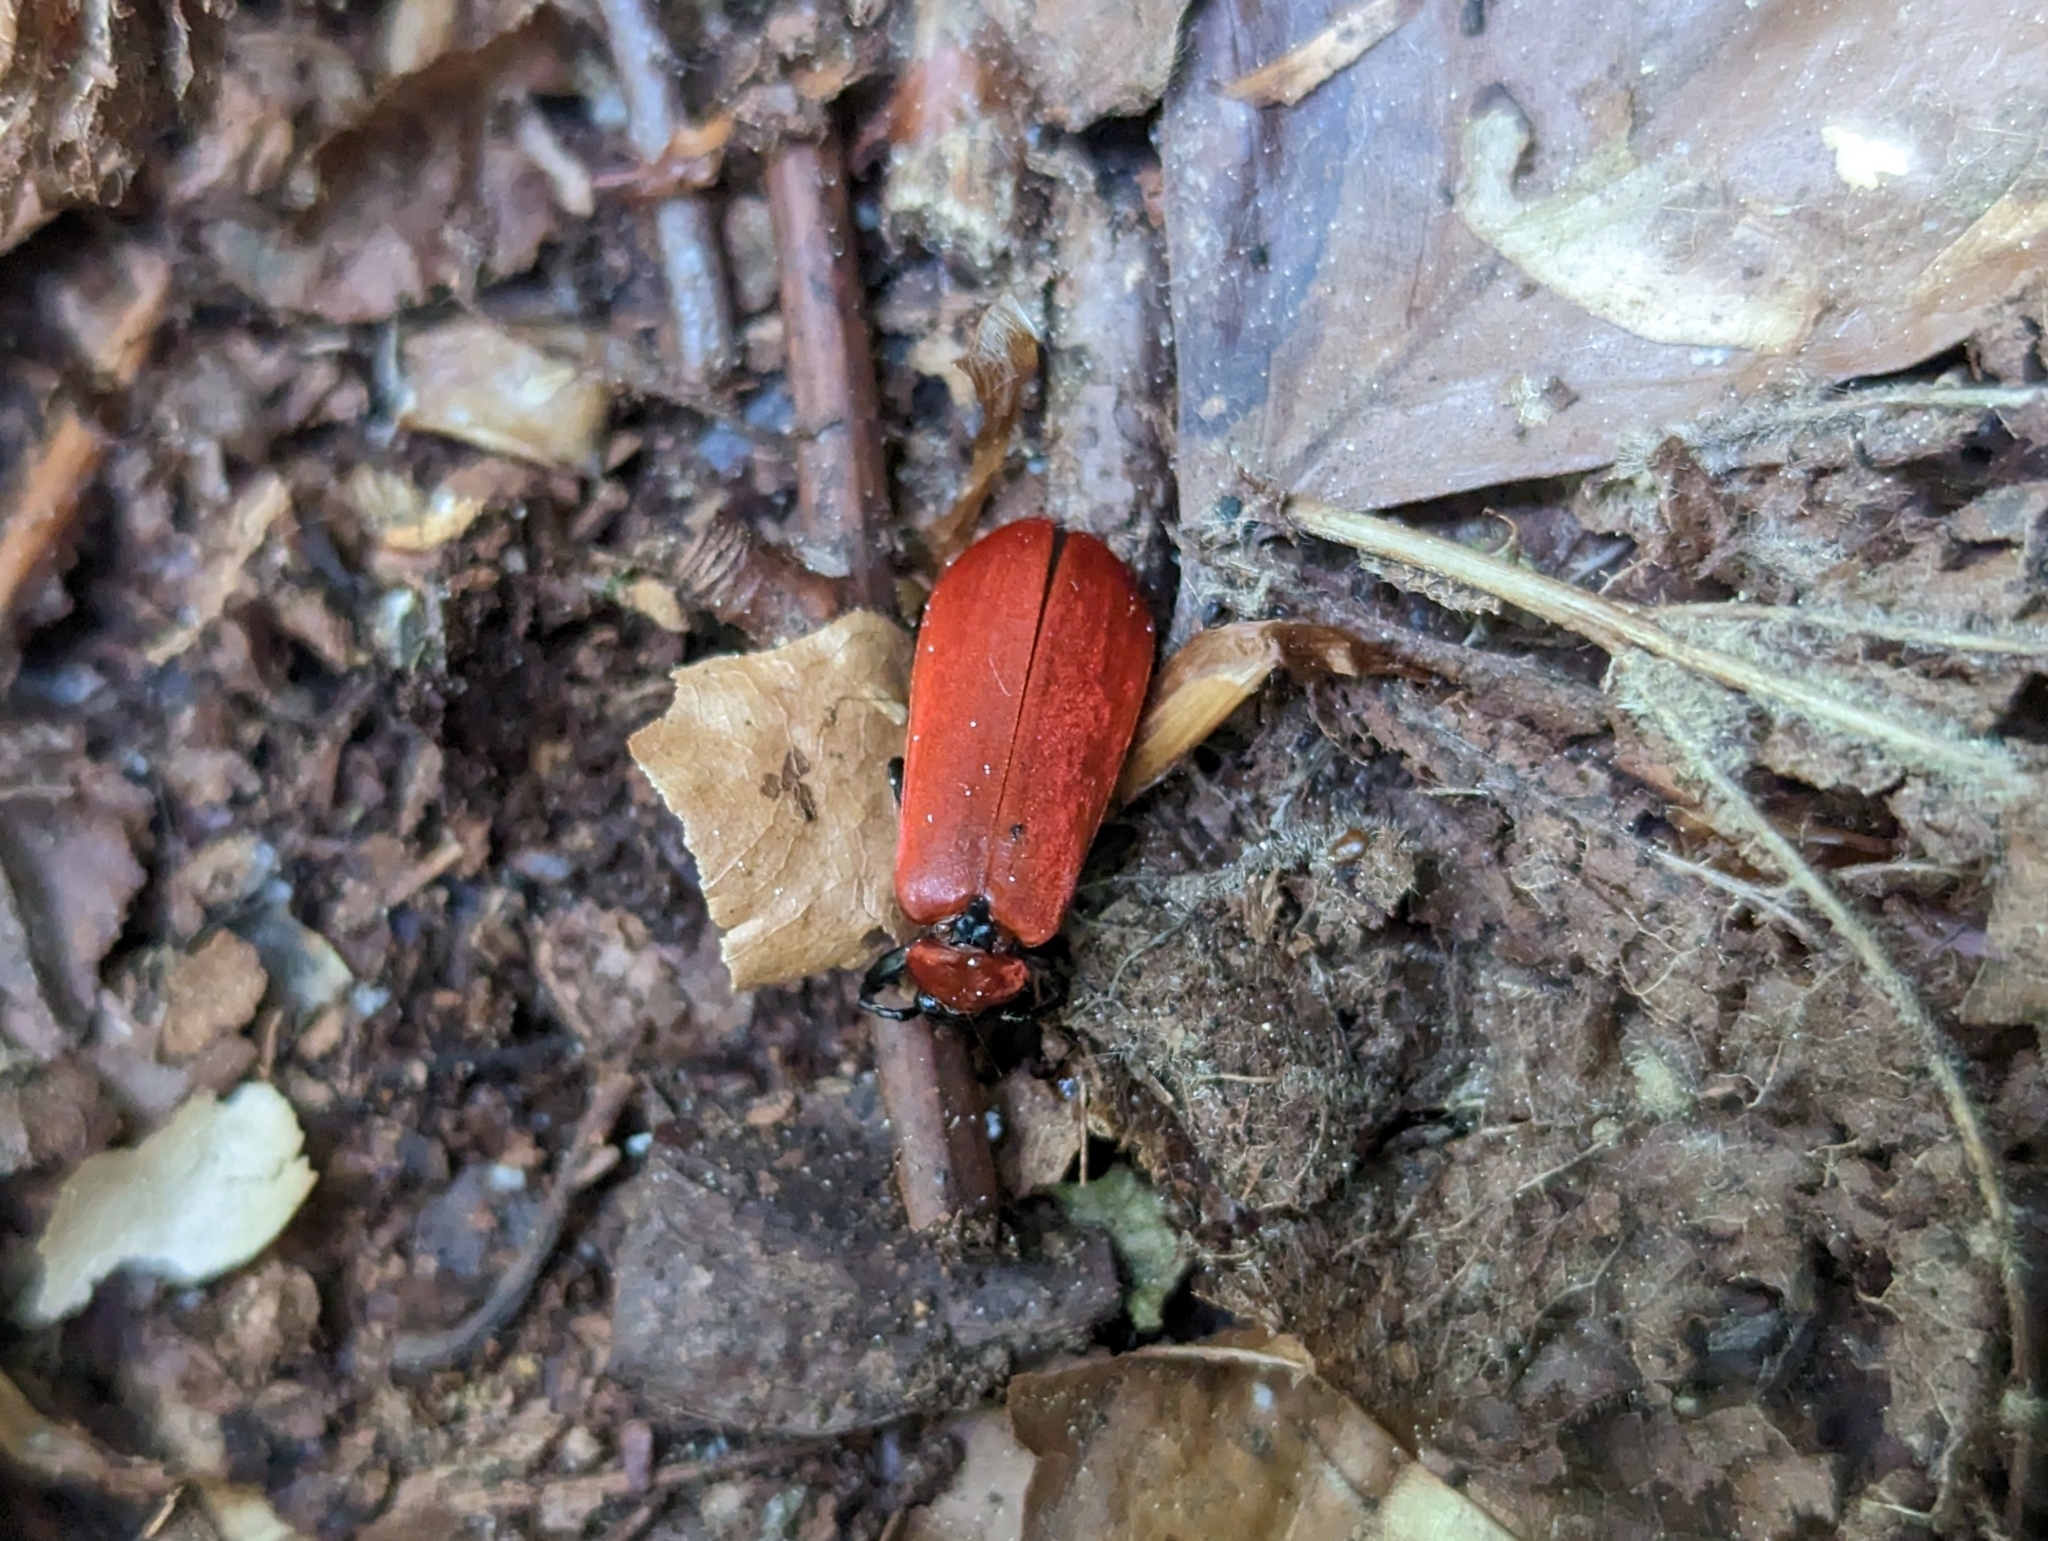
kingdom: Animalia
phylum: Arthropoda
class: Insecta
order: Coleoptera
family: Pyrochroidae
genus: Pyrochroa
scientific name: Pyrochroa coccinea
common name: Black-headed cardinal beetle
